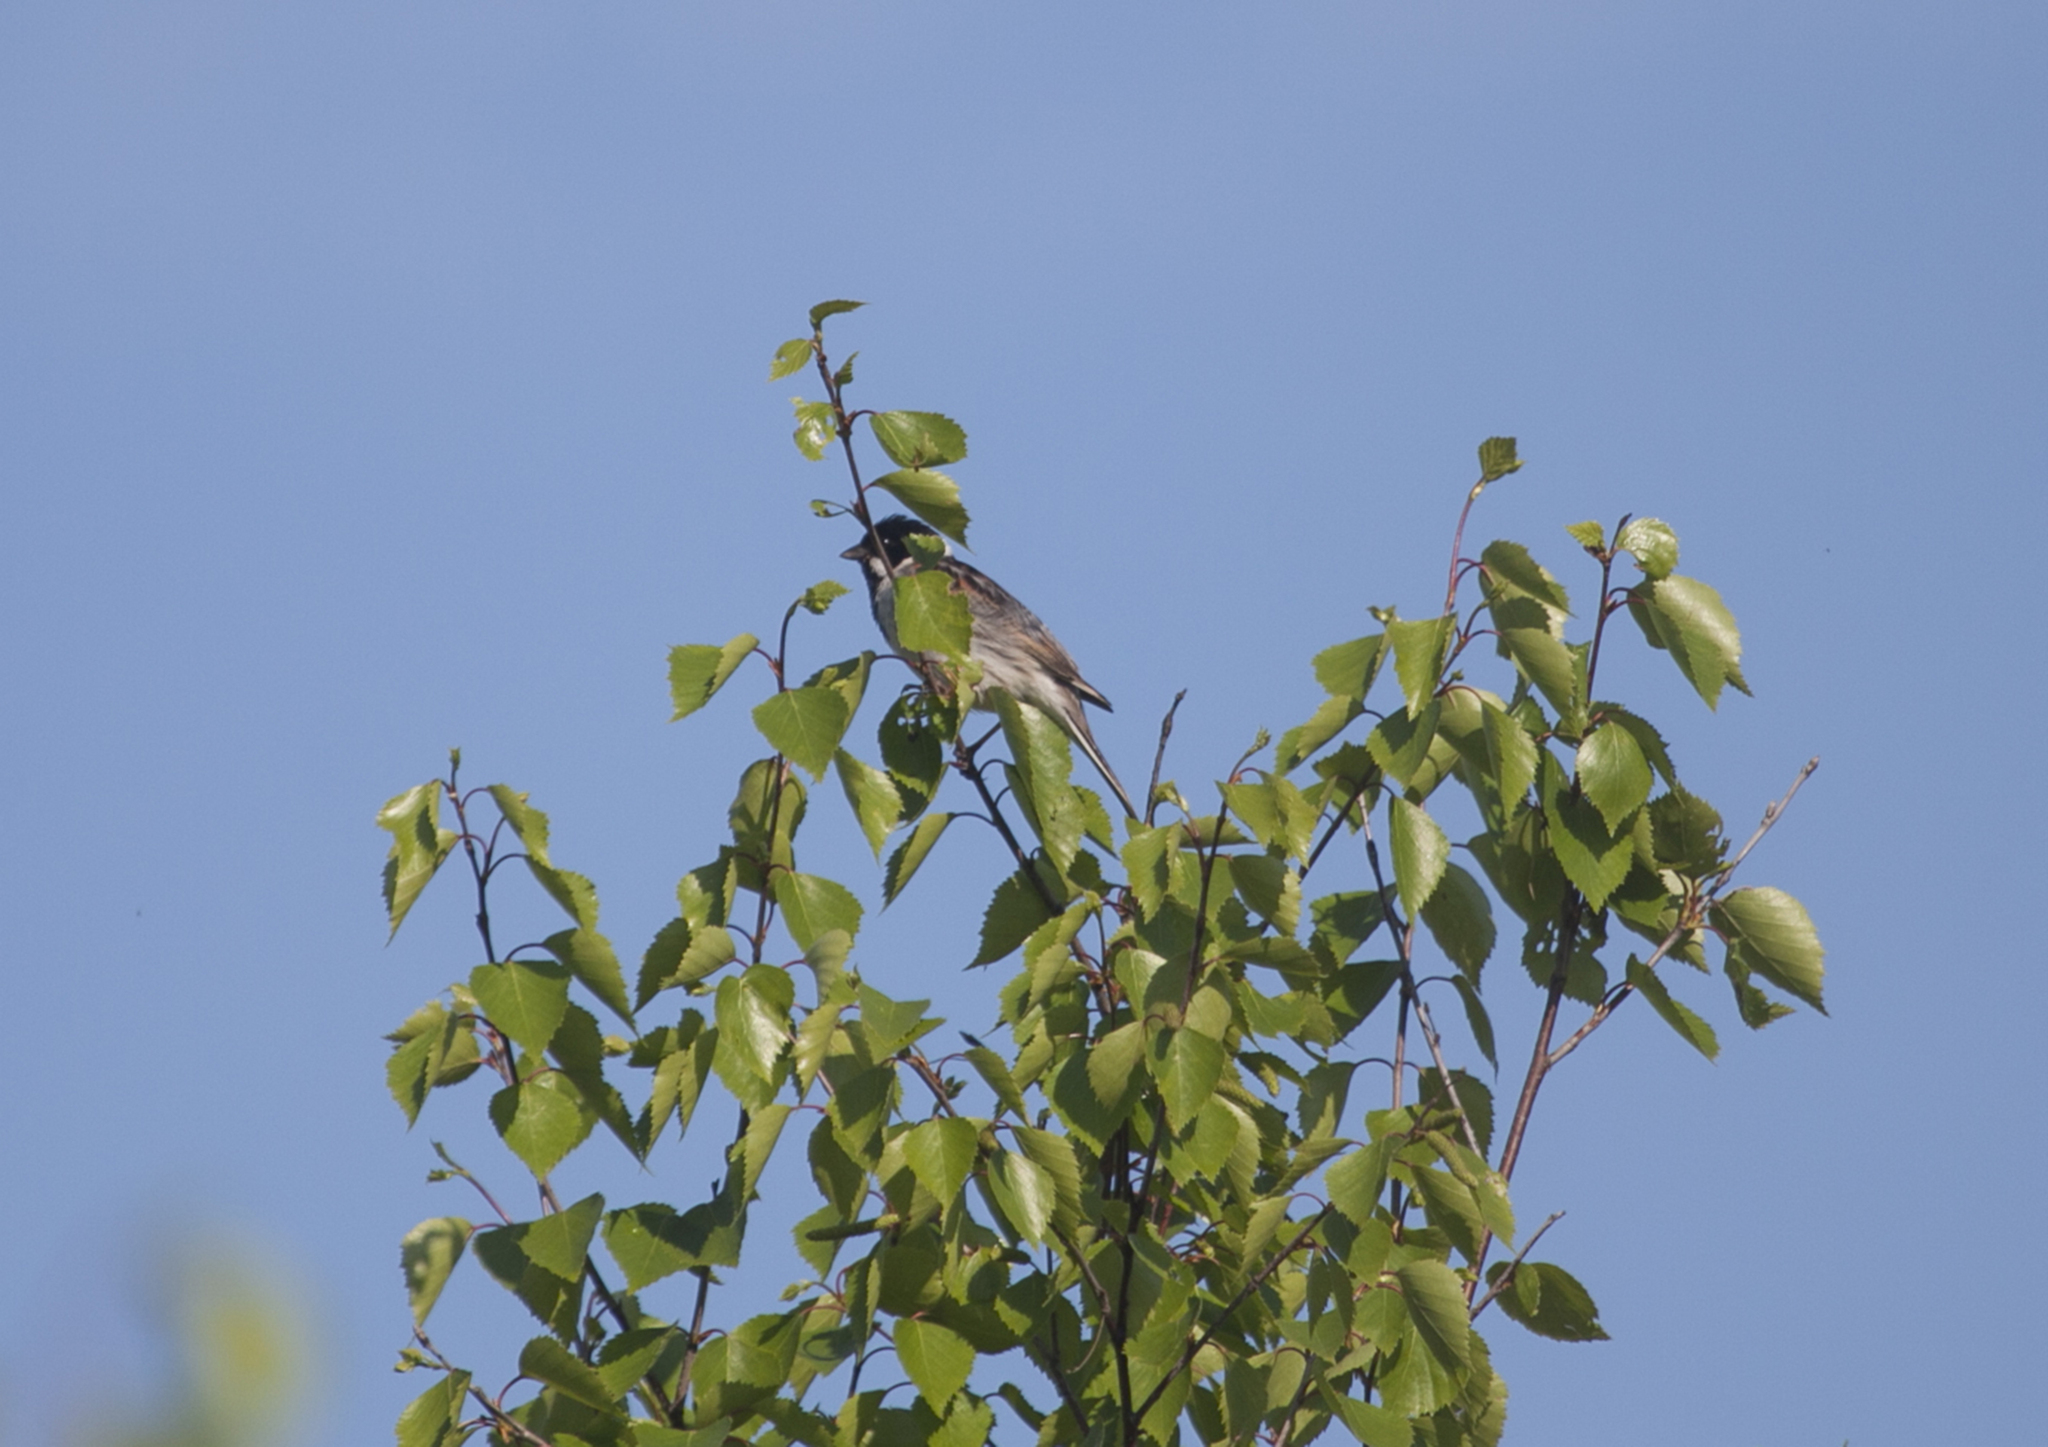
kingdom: Animalia
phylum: Chordata
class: Aves
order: Passeriformes
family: Emberizidae
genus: Emberiza
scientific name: Emberiza schoeniclus
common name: Reed bunting
